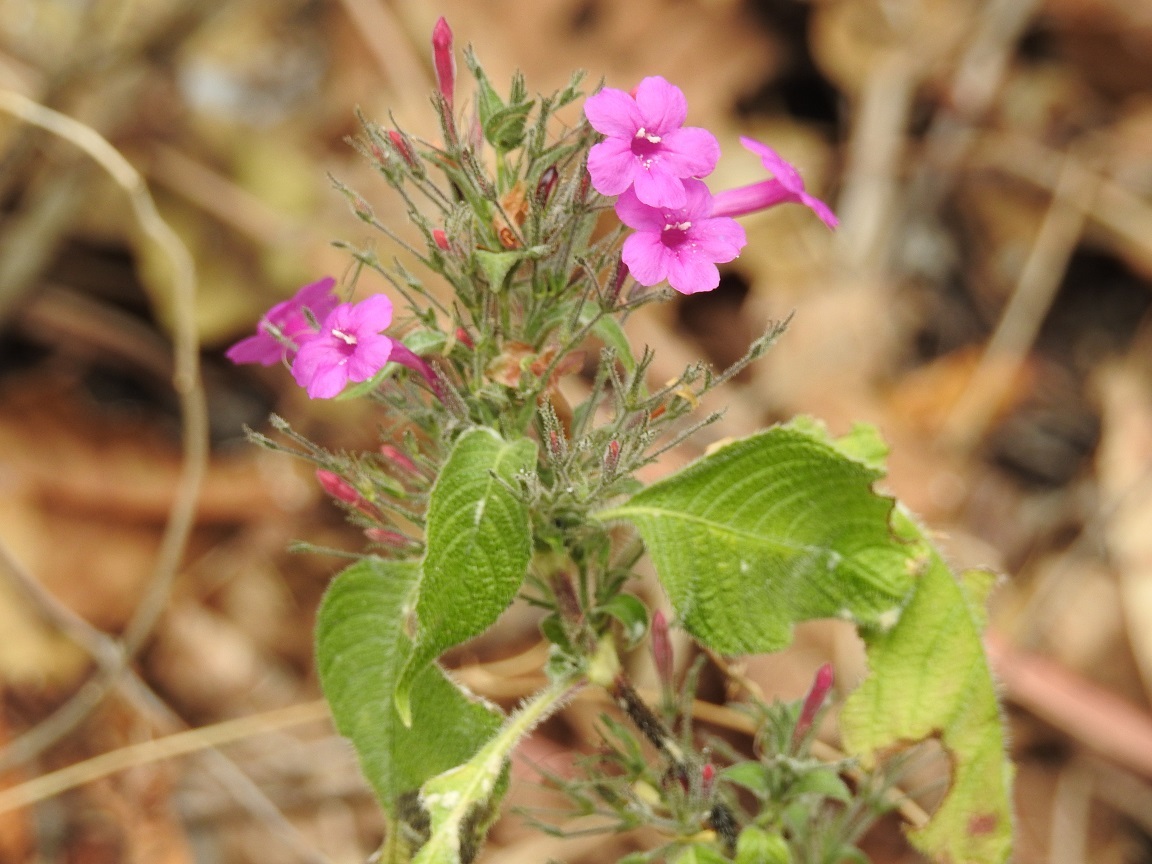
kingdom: Plantae
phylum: Tracheophyta
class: Magnoliopsida
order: Lamiales
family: Acanthaceae
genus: Ruellia
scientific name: Ruellia inundata
